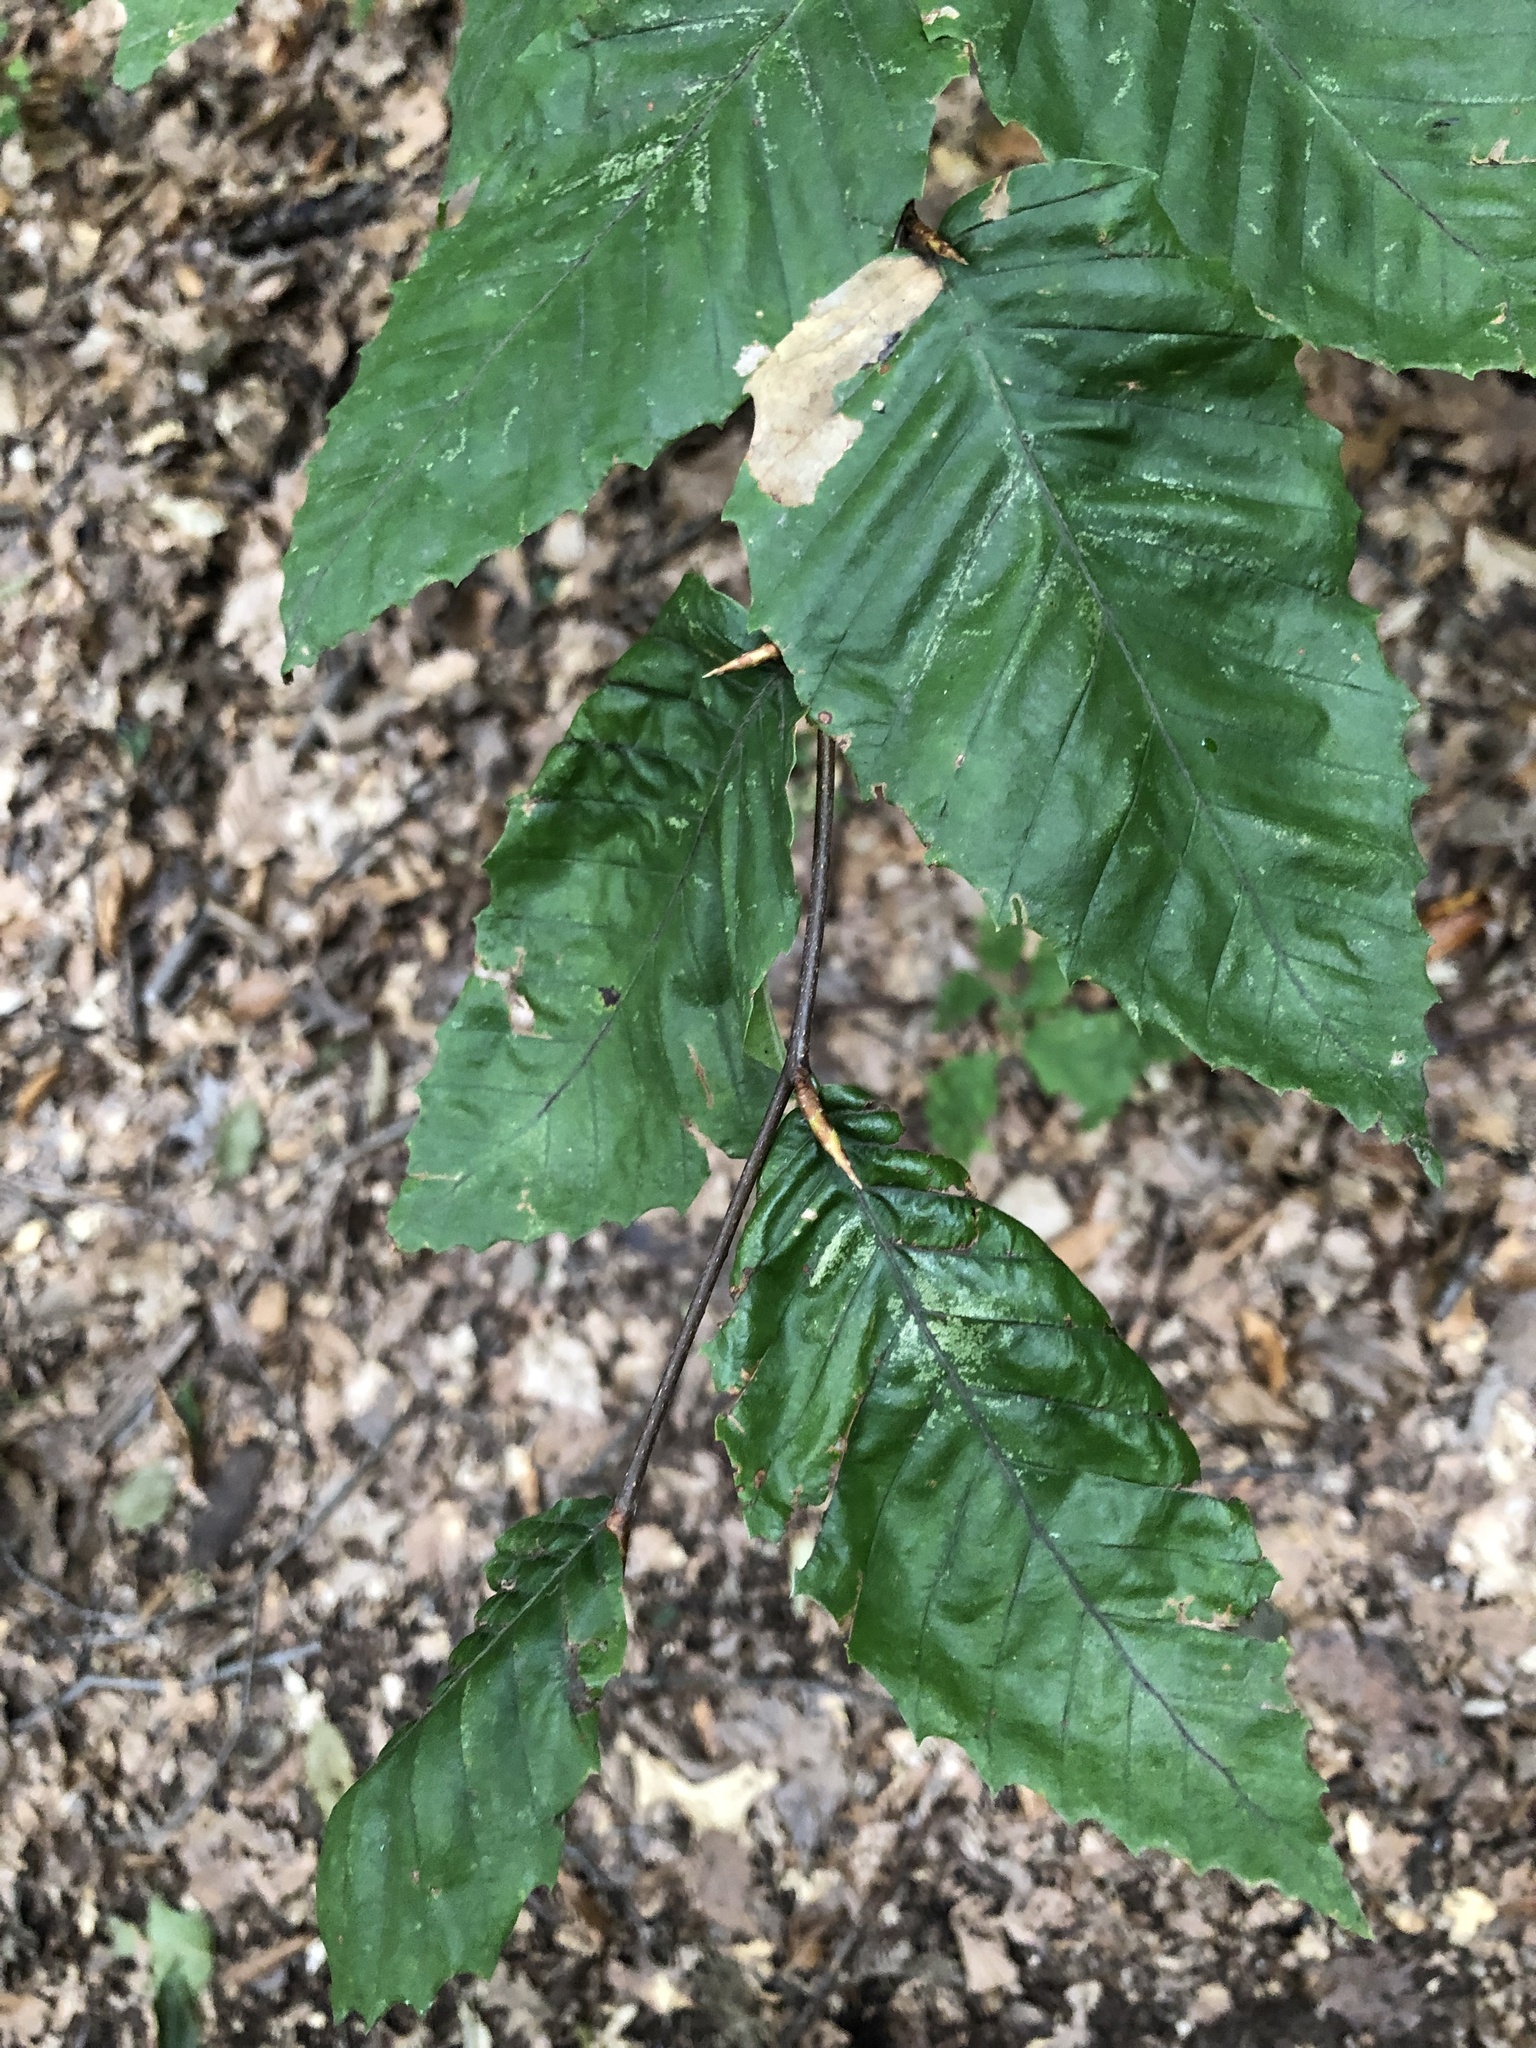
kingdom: Plantae
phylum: Tracheophyta
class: Magnoliopsida
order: Fagales
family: Fagaceae
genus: Fagus
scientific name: Fagus grandifolia
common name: American beech
